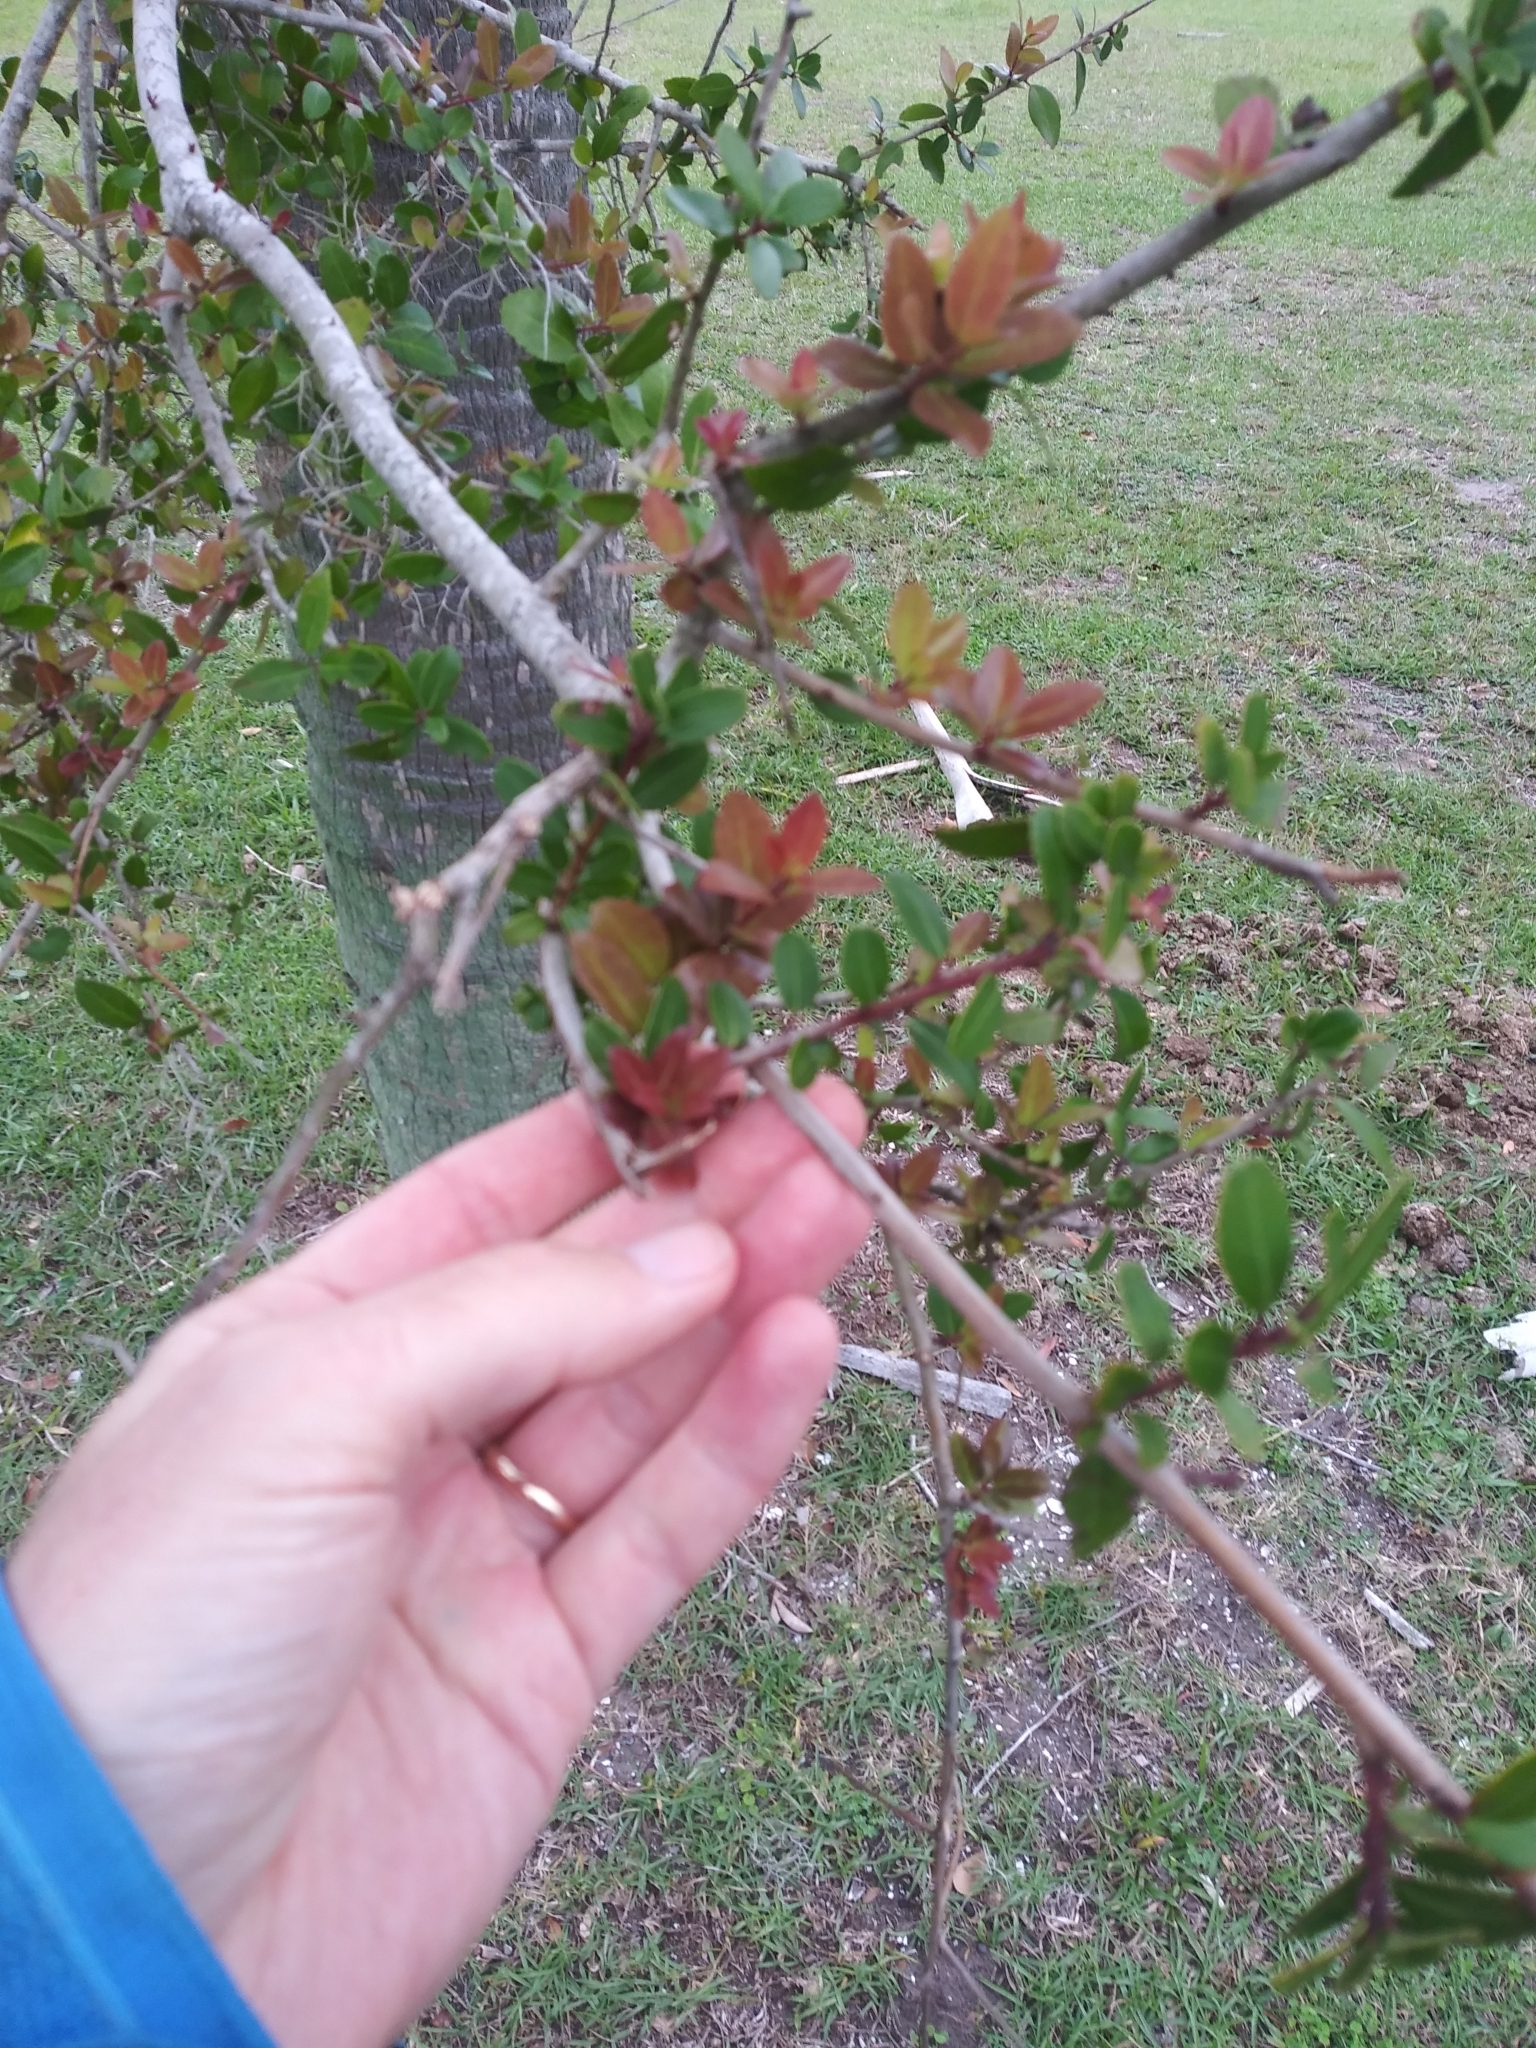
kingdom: Plantae
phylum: Tracheophyta
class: Magnoliopsida
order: Aquifoliales
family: Aquifoliaceae
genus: Ilex
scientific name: Ilex vomitoria
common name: Yaupon holly
